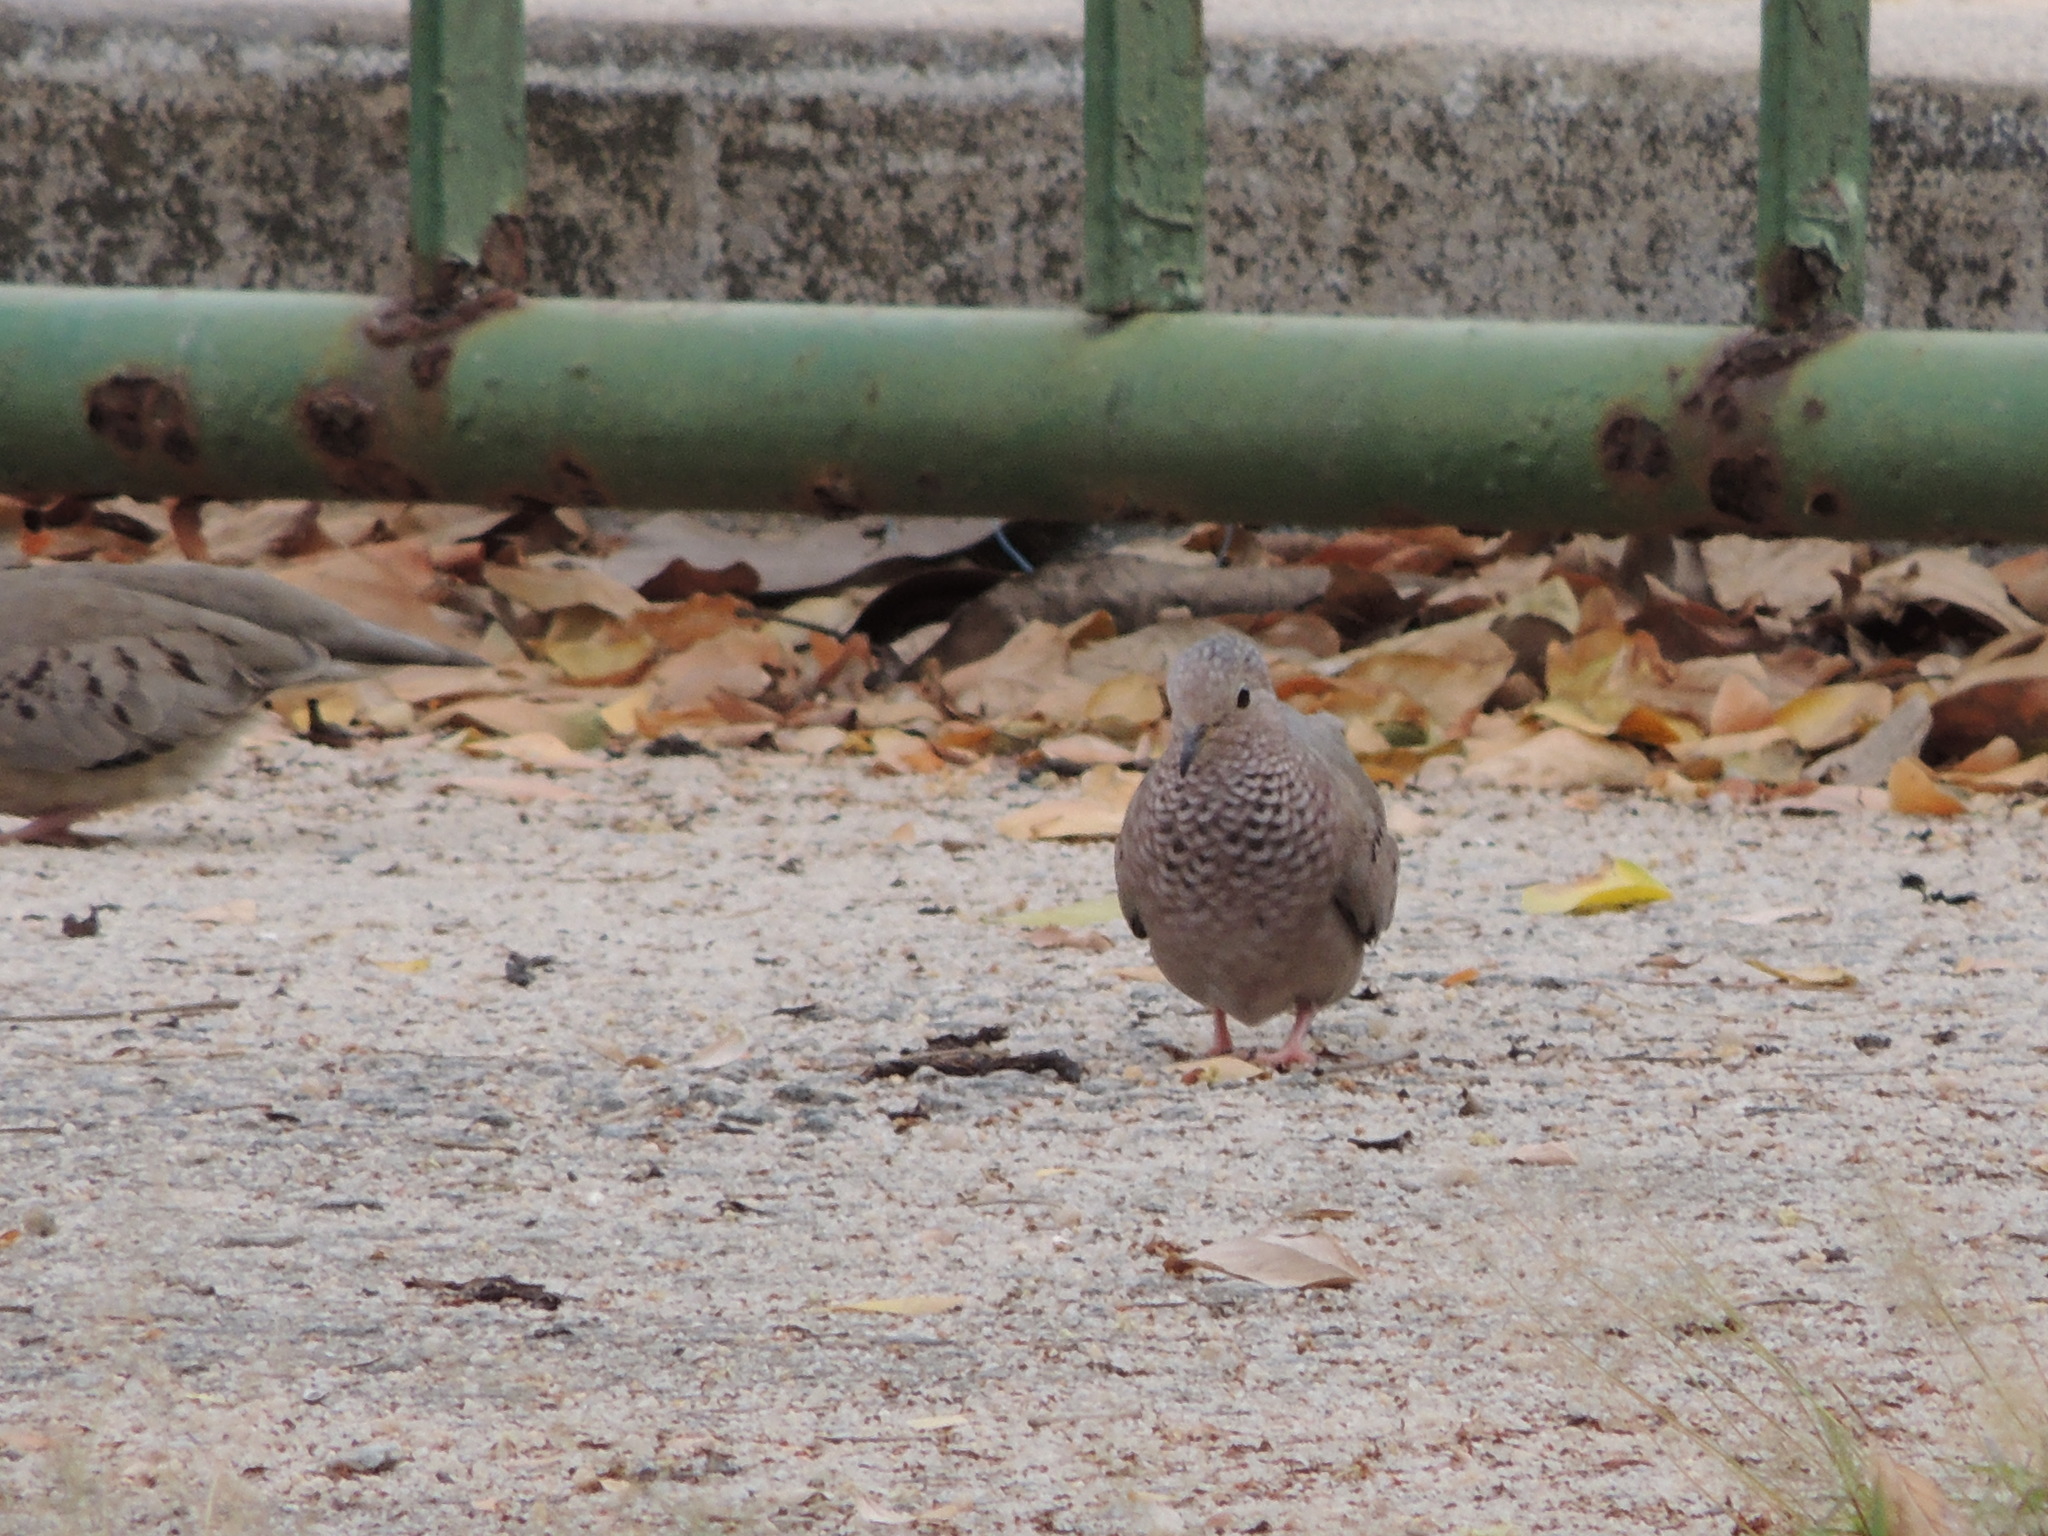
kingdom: Animalia
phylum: Chordata
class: Aves
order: Columbiformes
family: Columbidae
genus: Columbina
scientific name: Columbina passerina
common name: Common ground-dove
